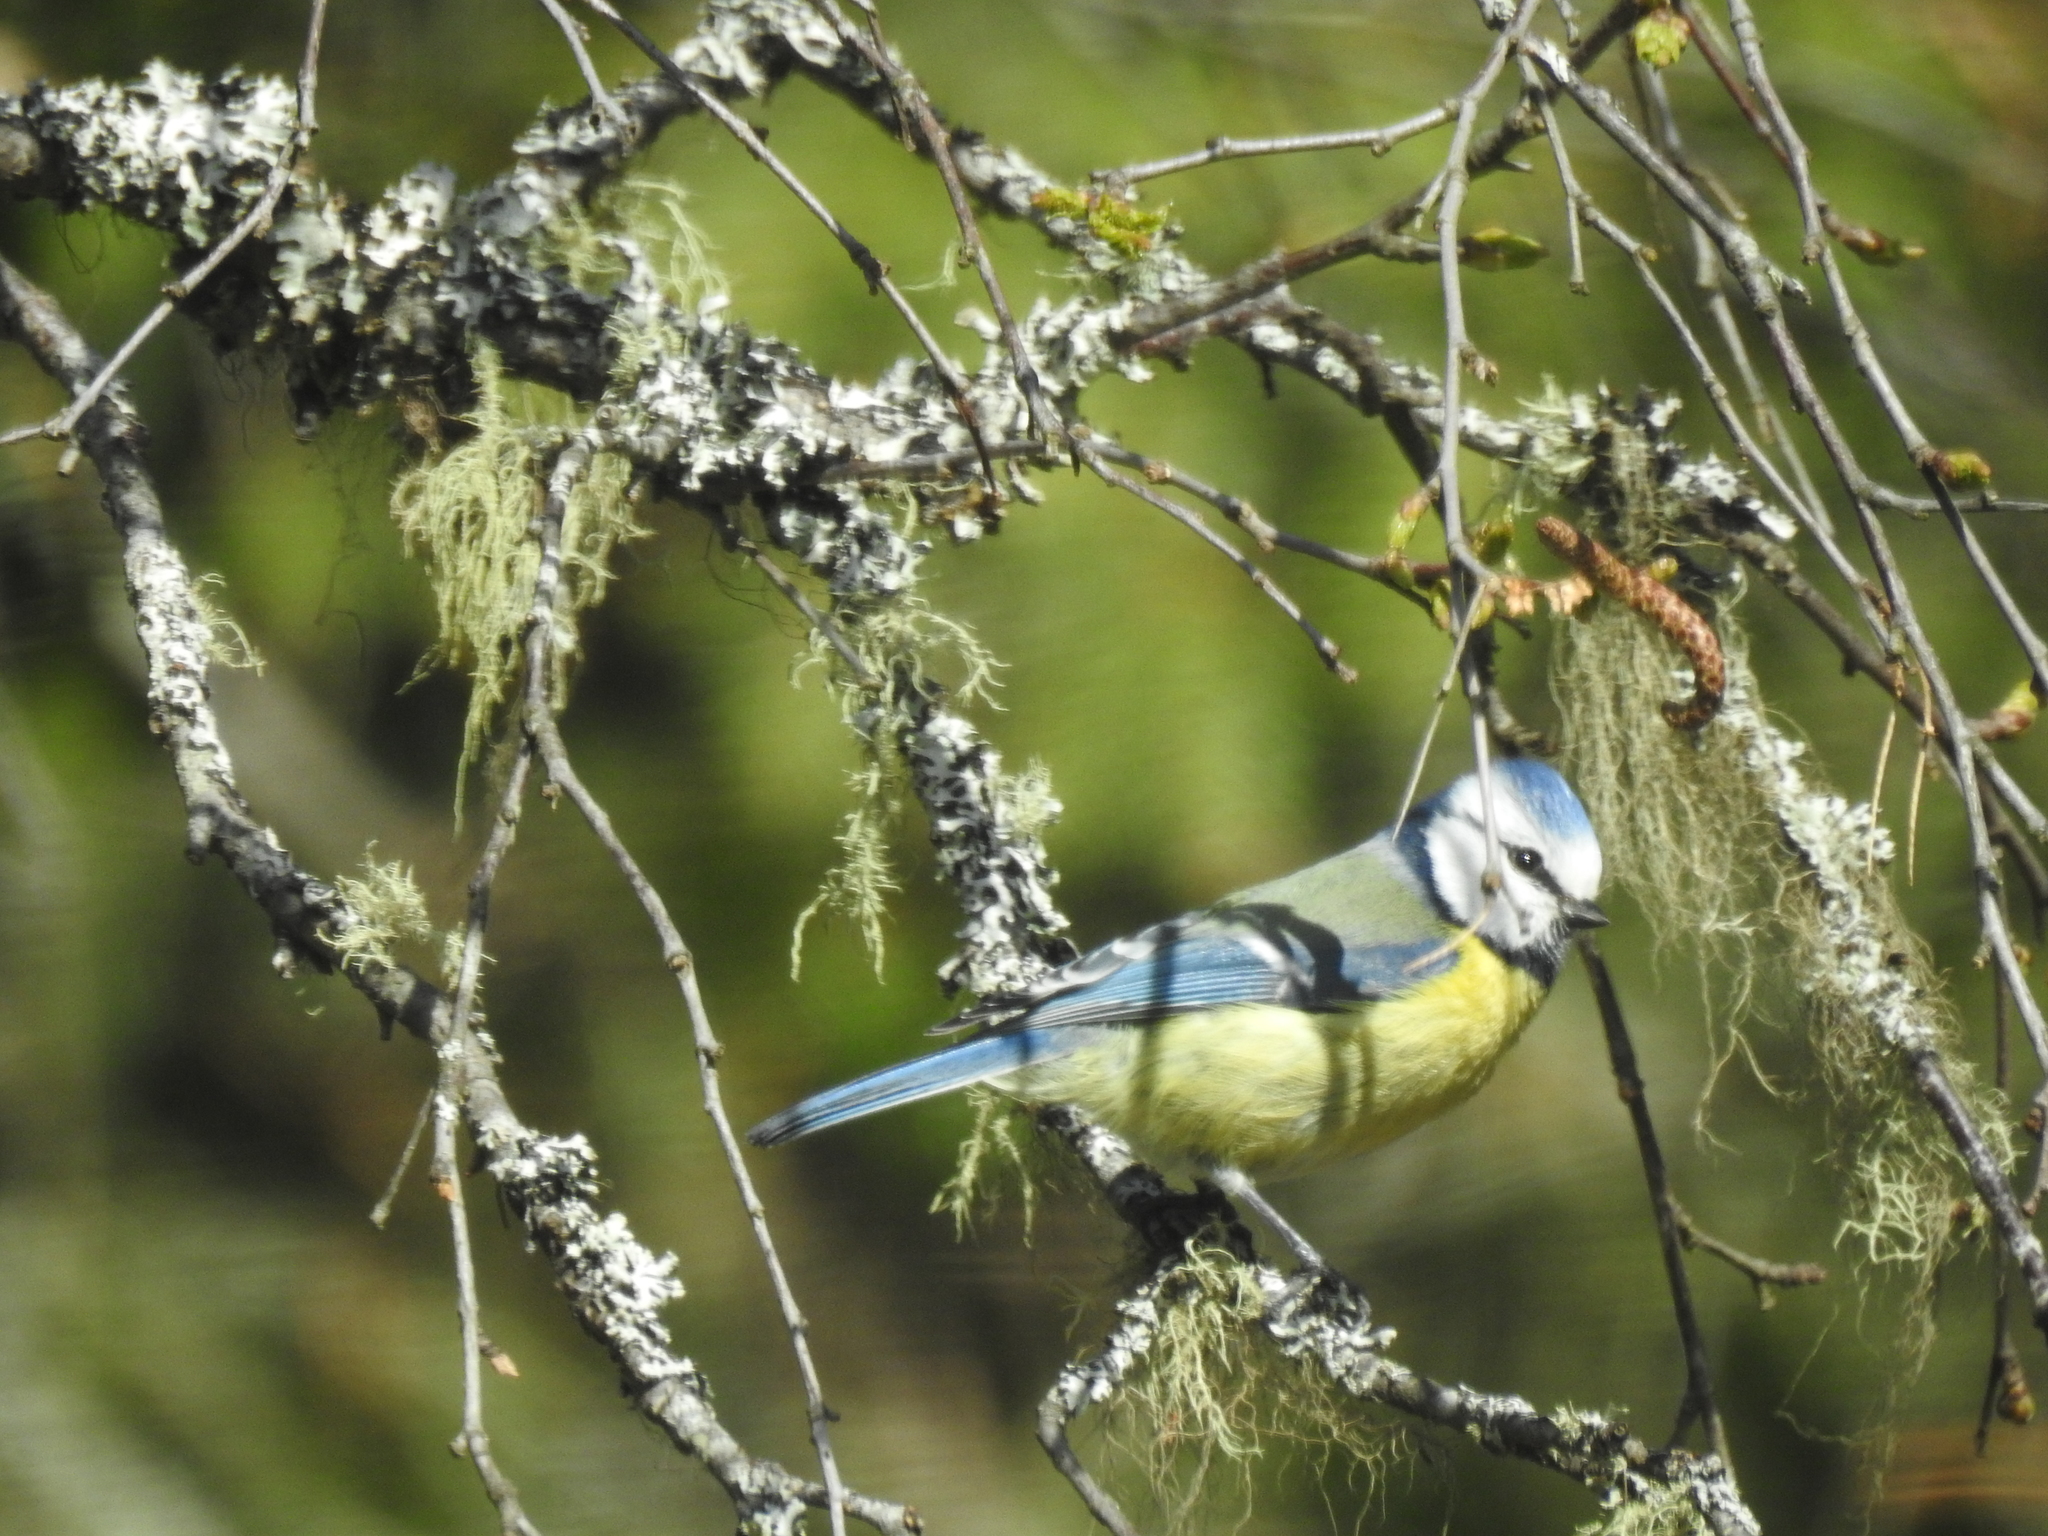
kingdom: Animalia
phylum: Chordata
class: Aves
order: Passeriformes
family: Paridae
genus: Cyanistes
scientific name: Cyanistes caeruleus
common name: Eurasian blue tit
